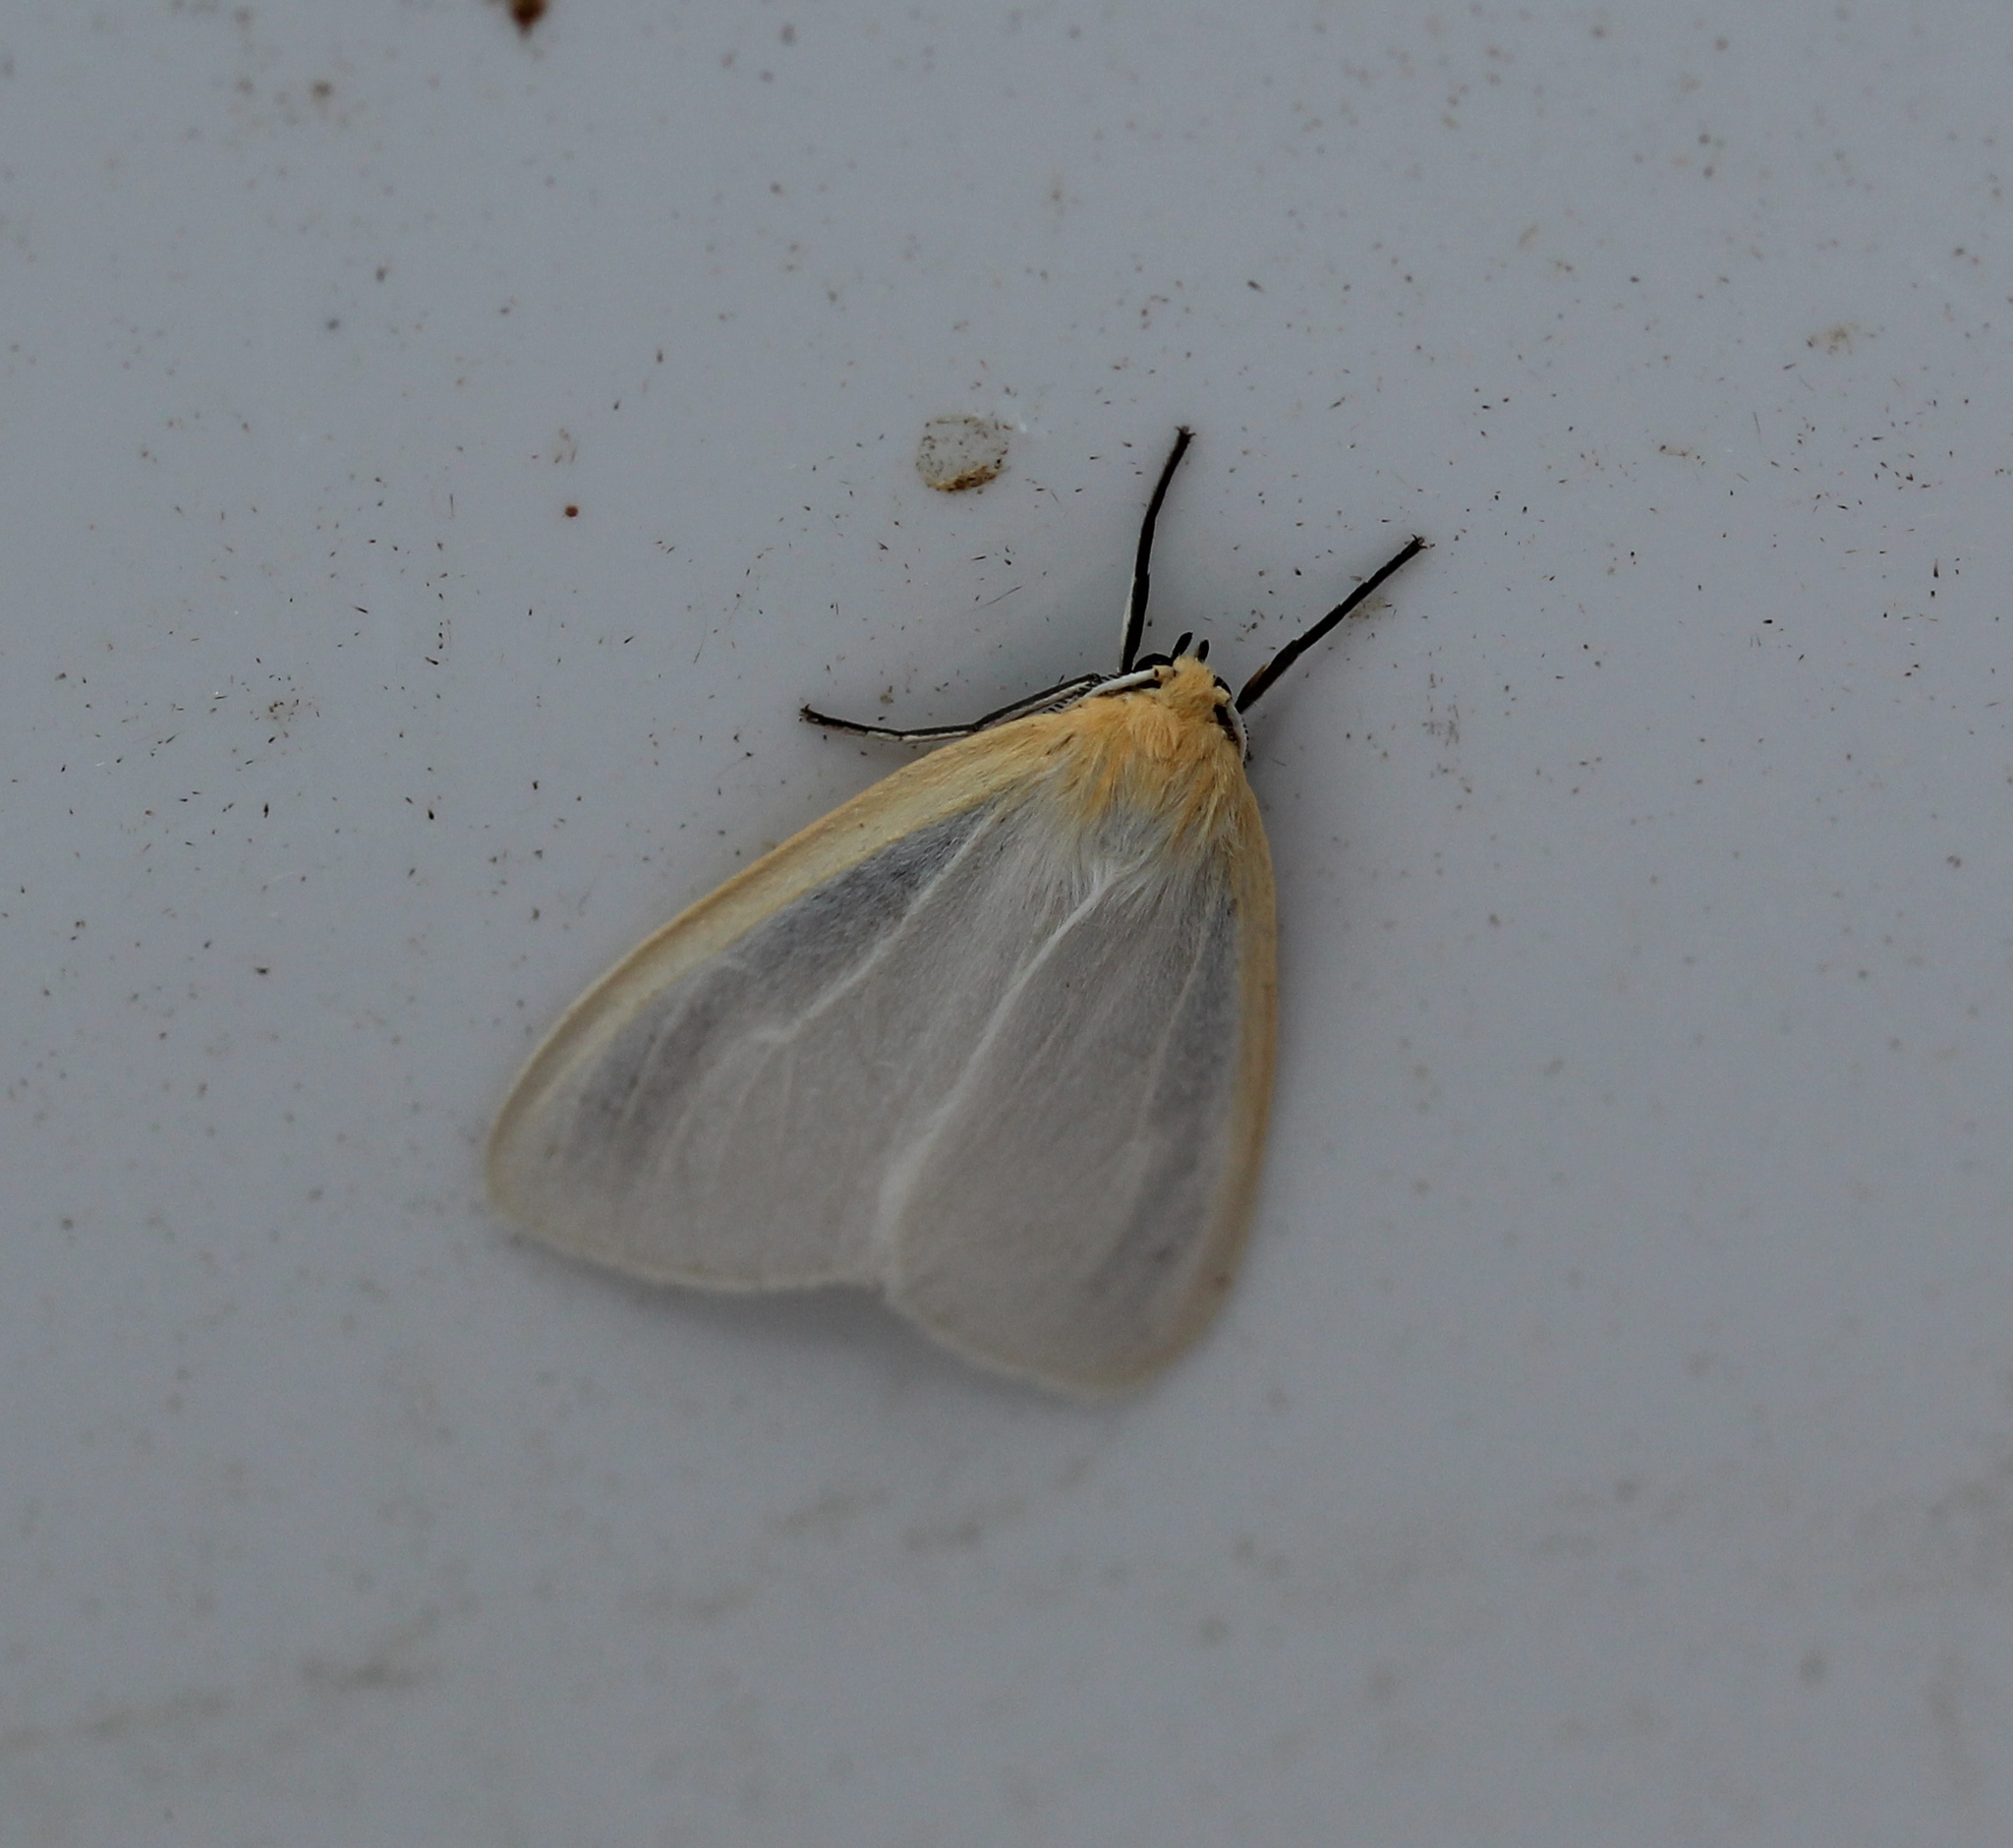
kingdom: Animalia
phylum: Arthropoda
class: Insecta
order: Lepidoptera
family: Erebidae
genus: Cycnia
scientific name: Cycnia tenera
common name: Delicate cycnia moth
